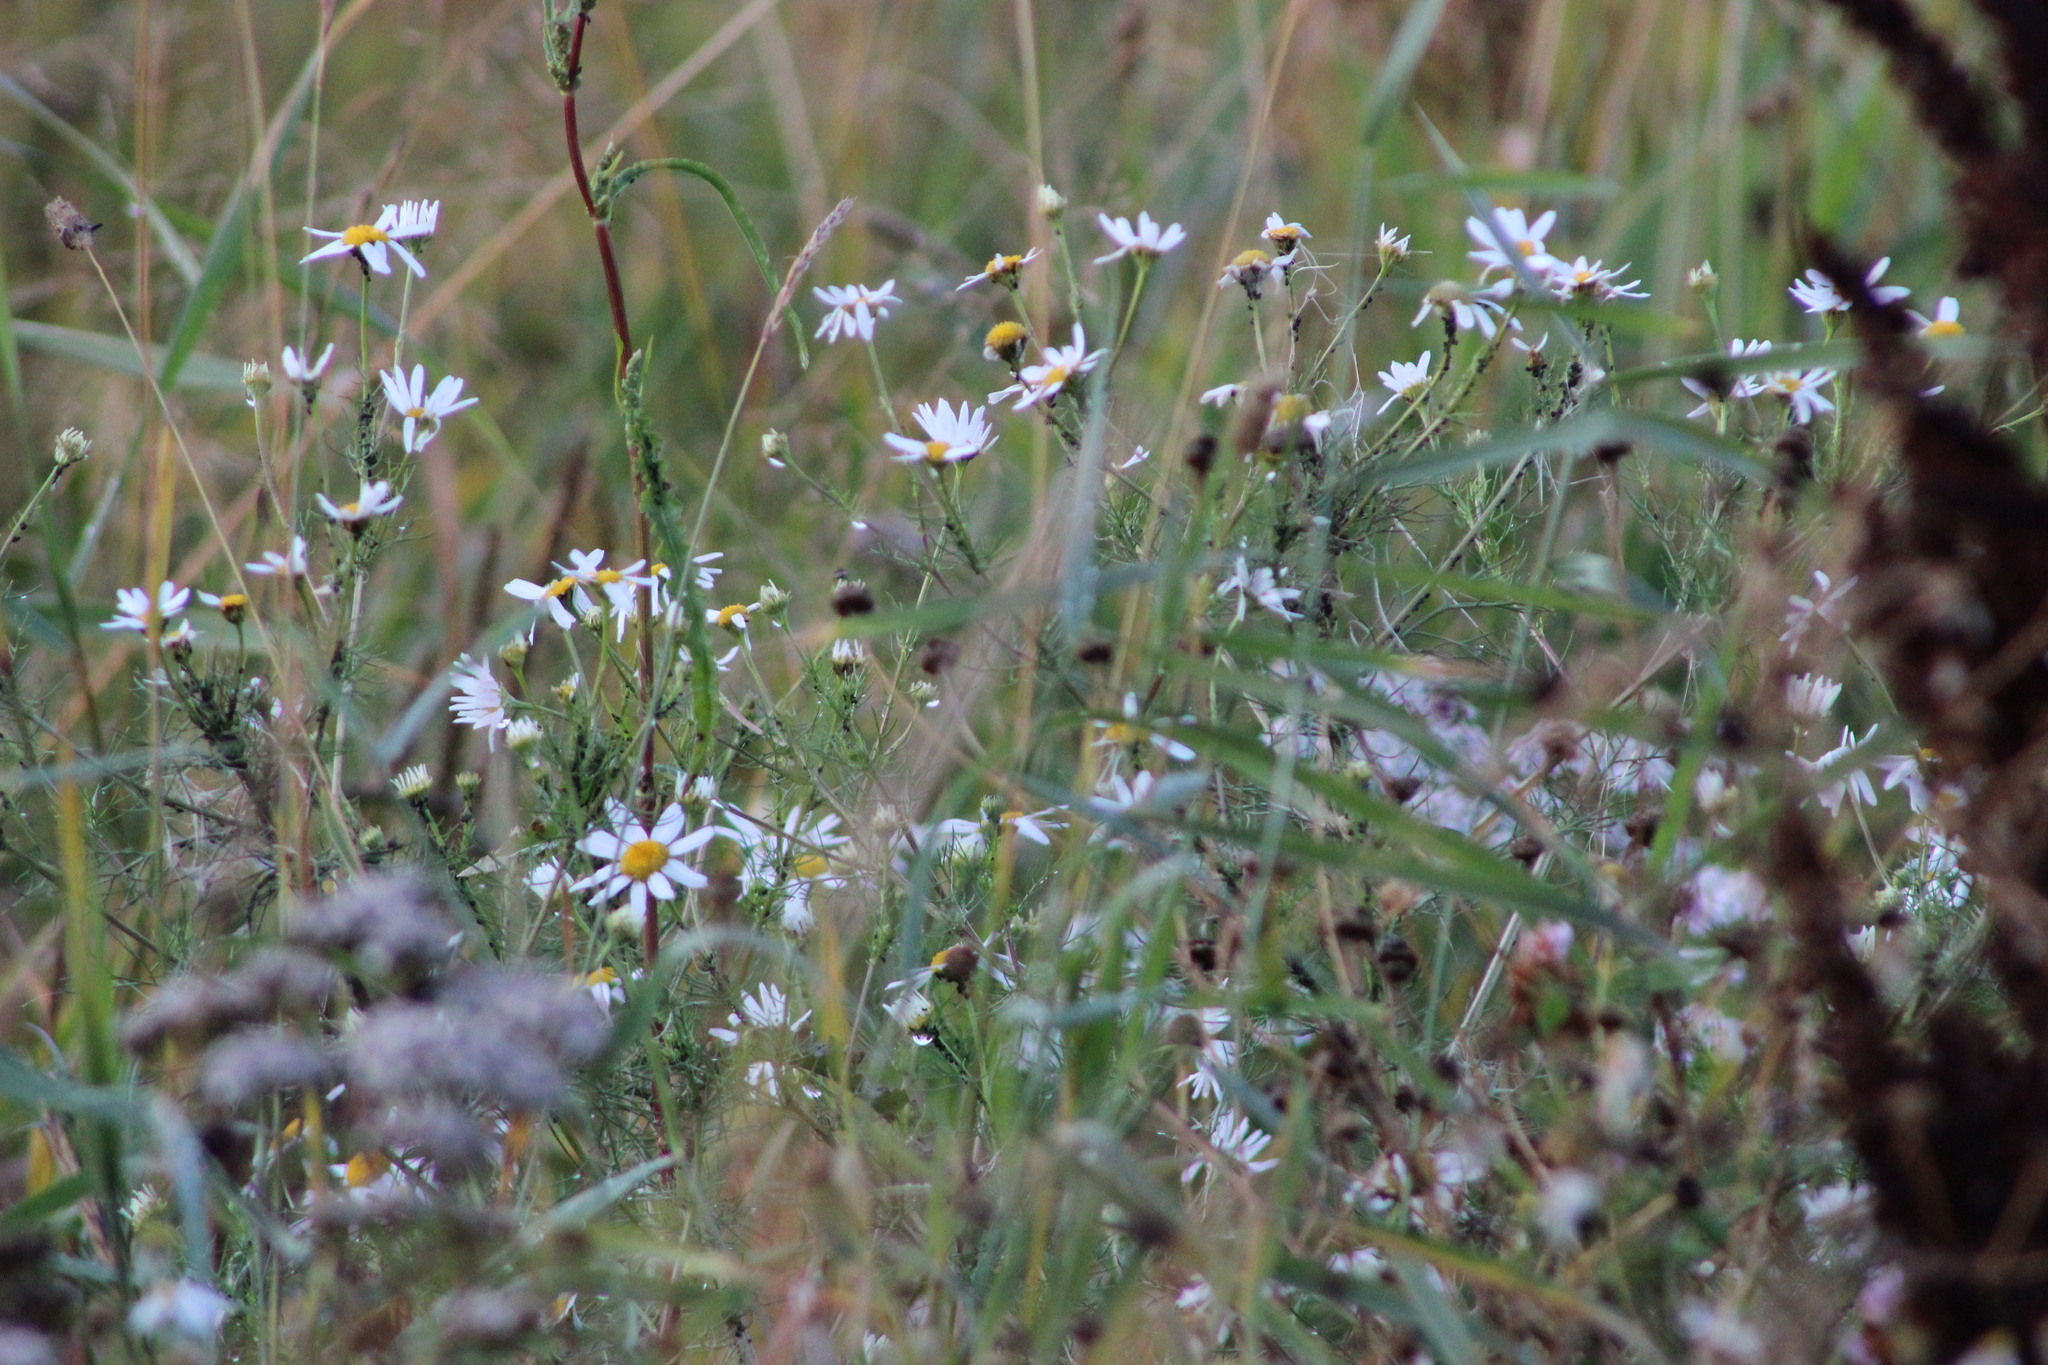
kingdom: Plantae
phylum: Tracheophyta
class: Magnoliopsida
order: Asterales
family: Asteraceae
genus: Tripleurospermum
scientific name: Tripleurospermum inodorum
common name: Scentless mayweed
